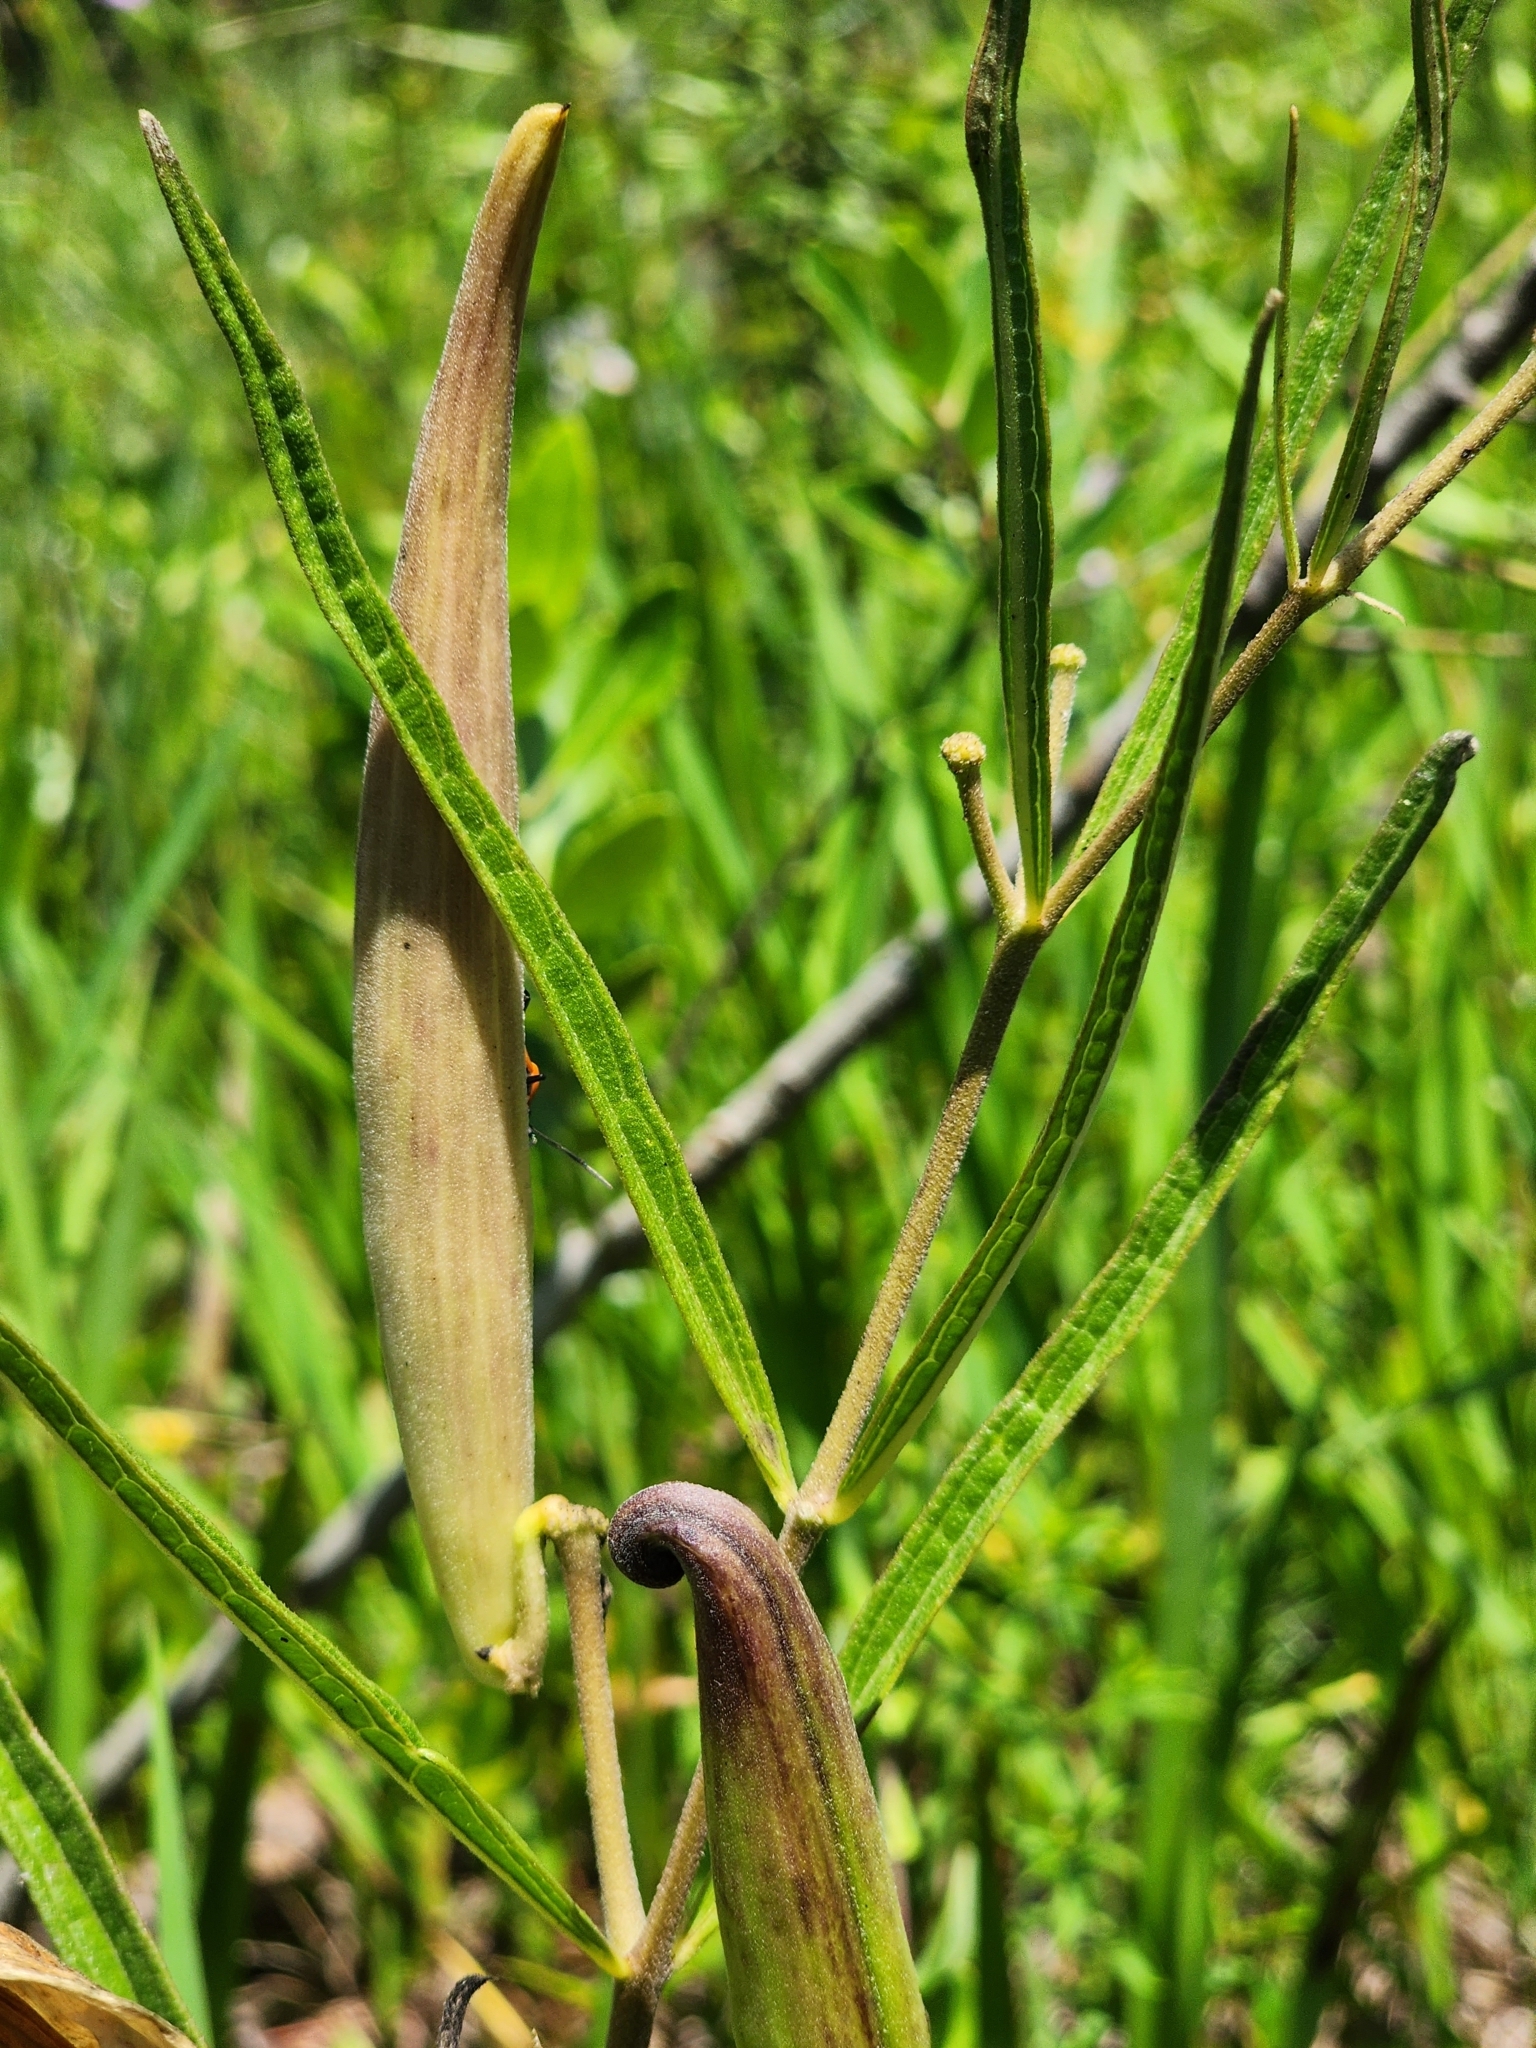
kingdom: Plantae
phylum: Tracheophyta
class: Magnoliopsida
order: Gentianales
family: Apocynaceae
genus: Asclepias
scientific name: Asclepias longifolia
